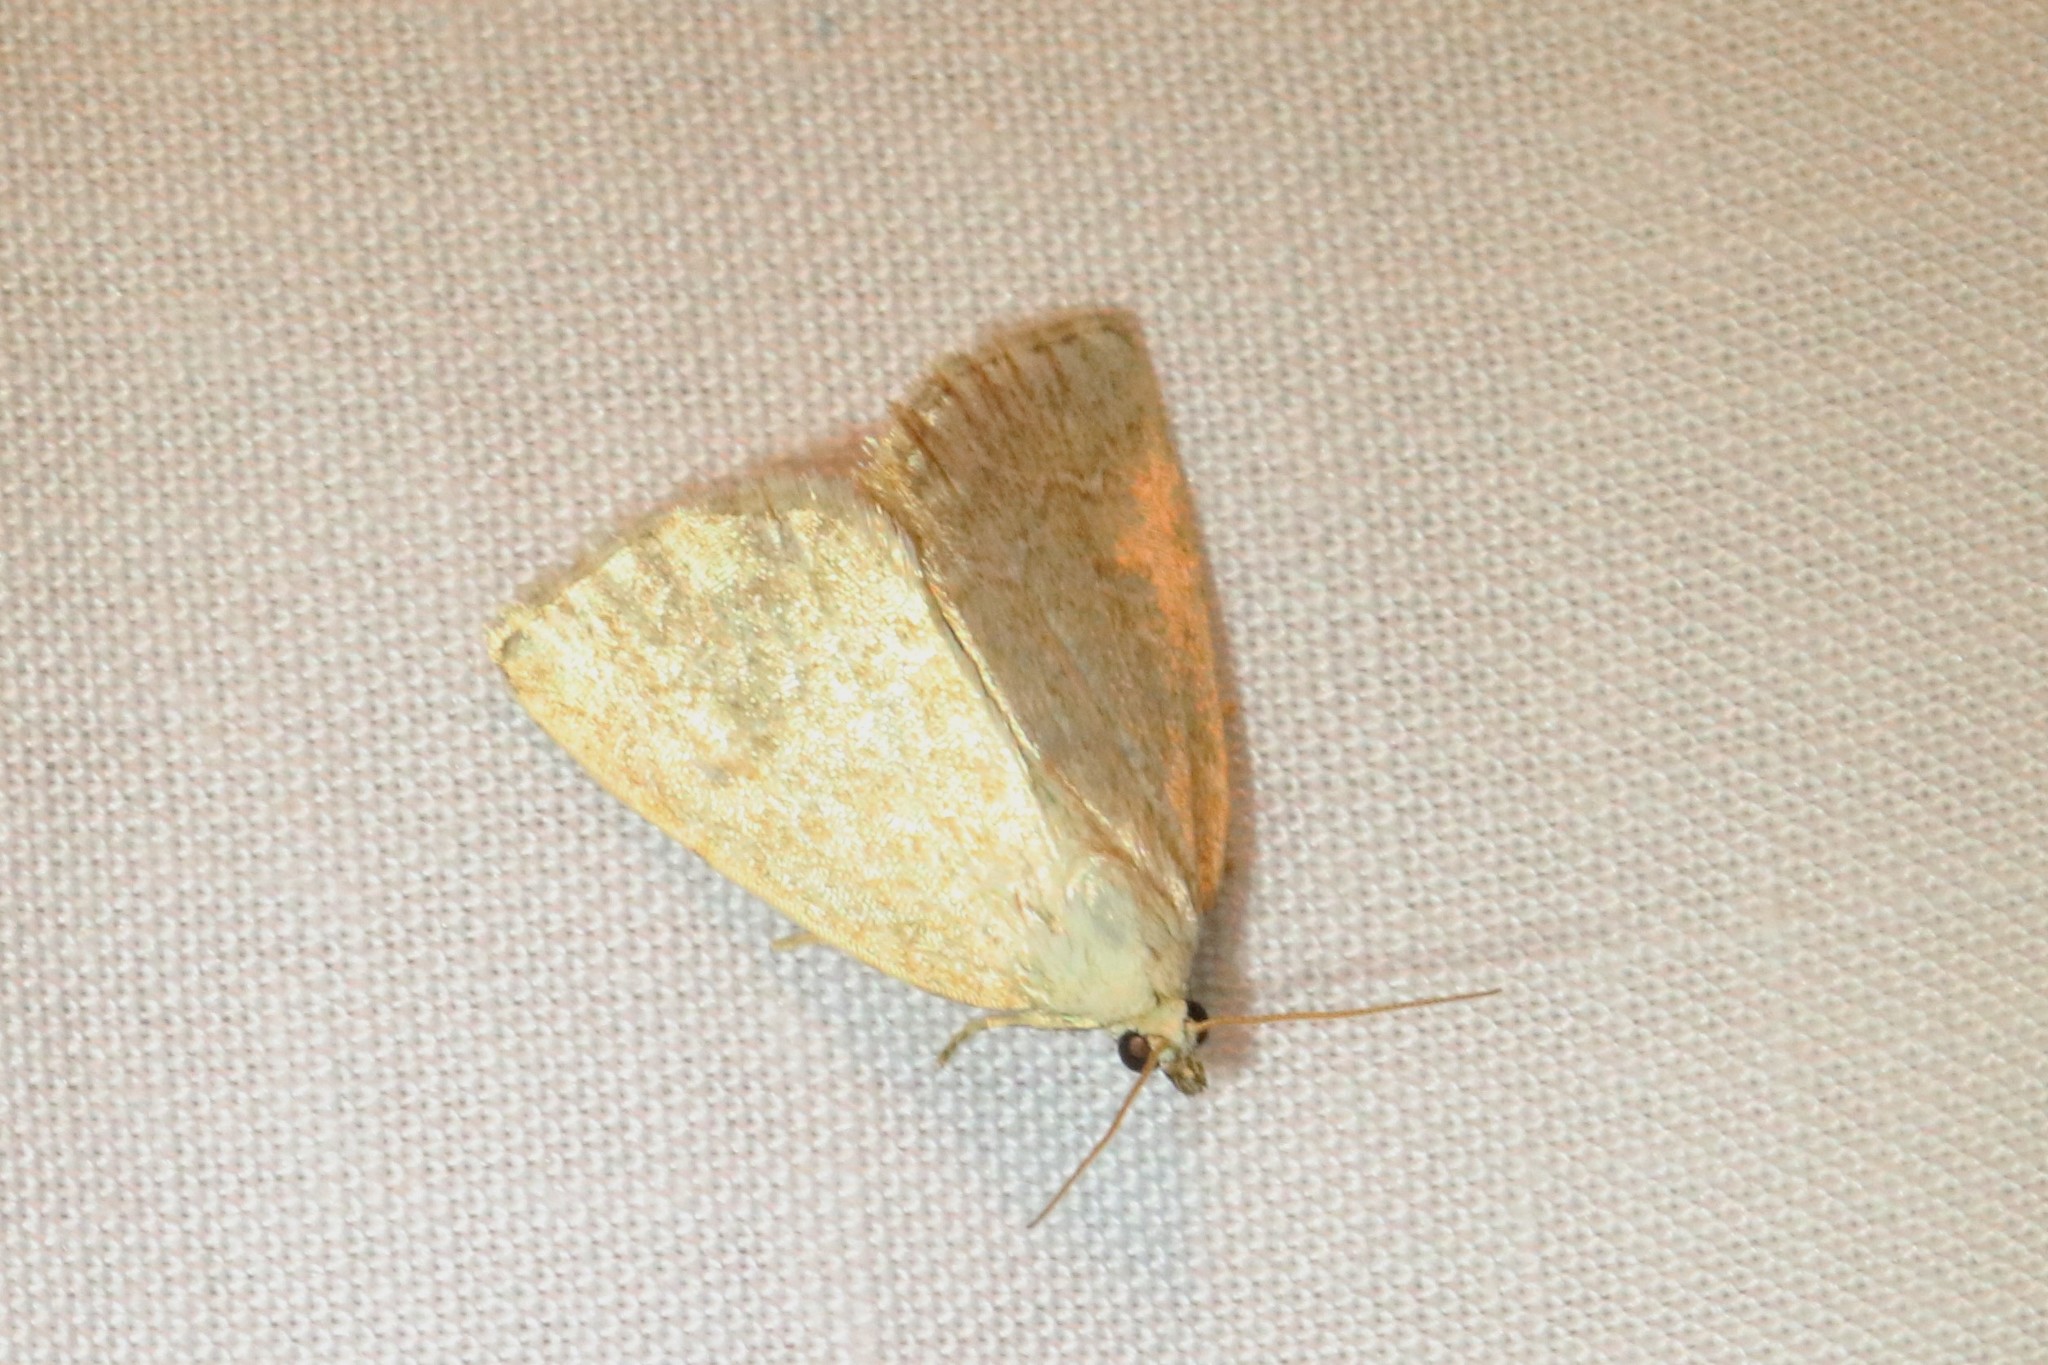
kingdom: Animalia
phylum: Arthropoda
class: Insecta
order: Lepidoptera
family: Noctuidae
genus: Protodeltote
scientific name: Protodeltote albidula
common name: Pale glyph
